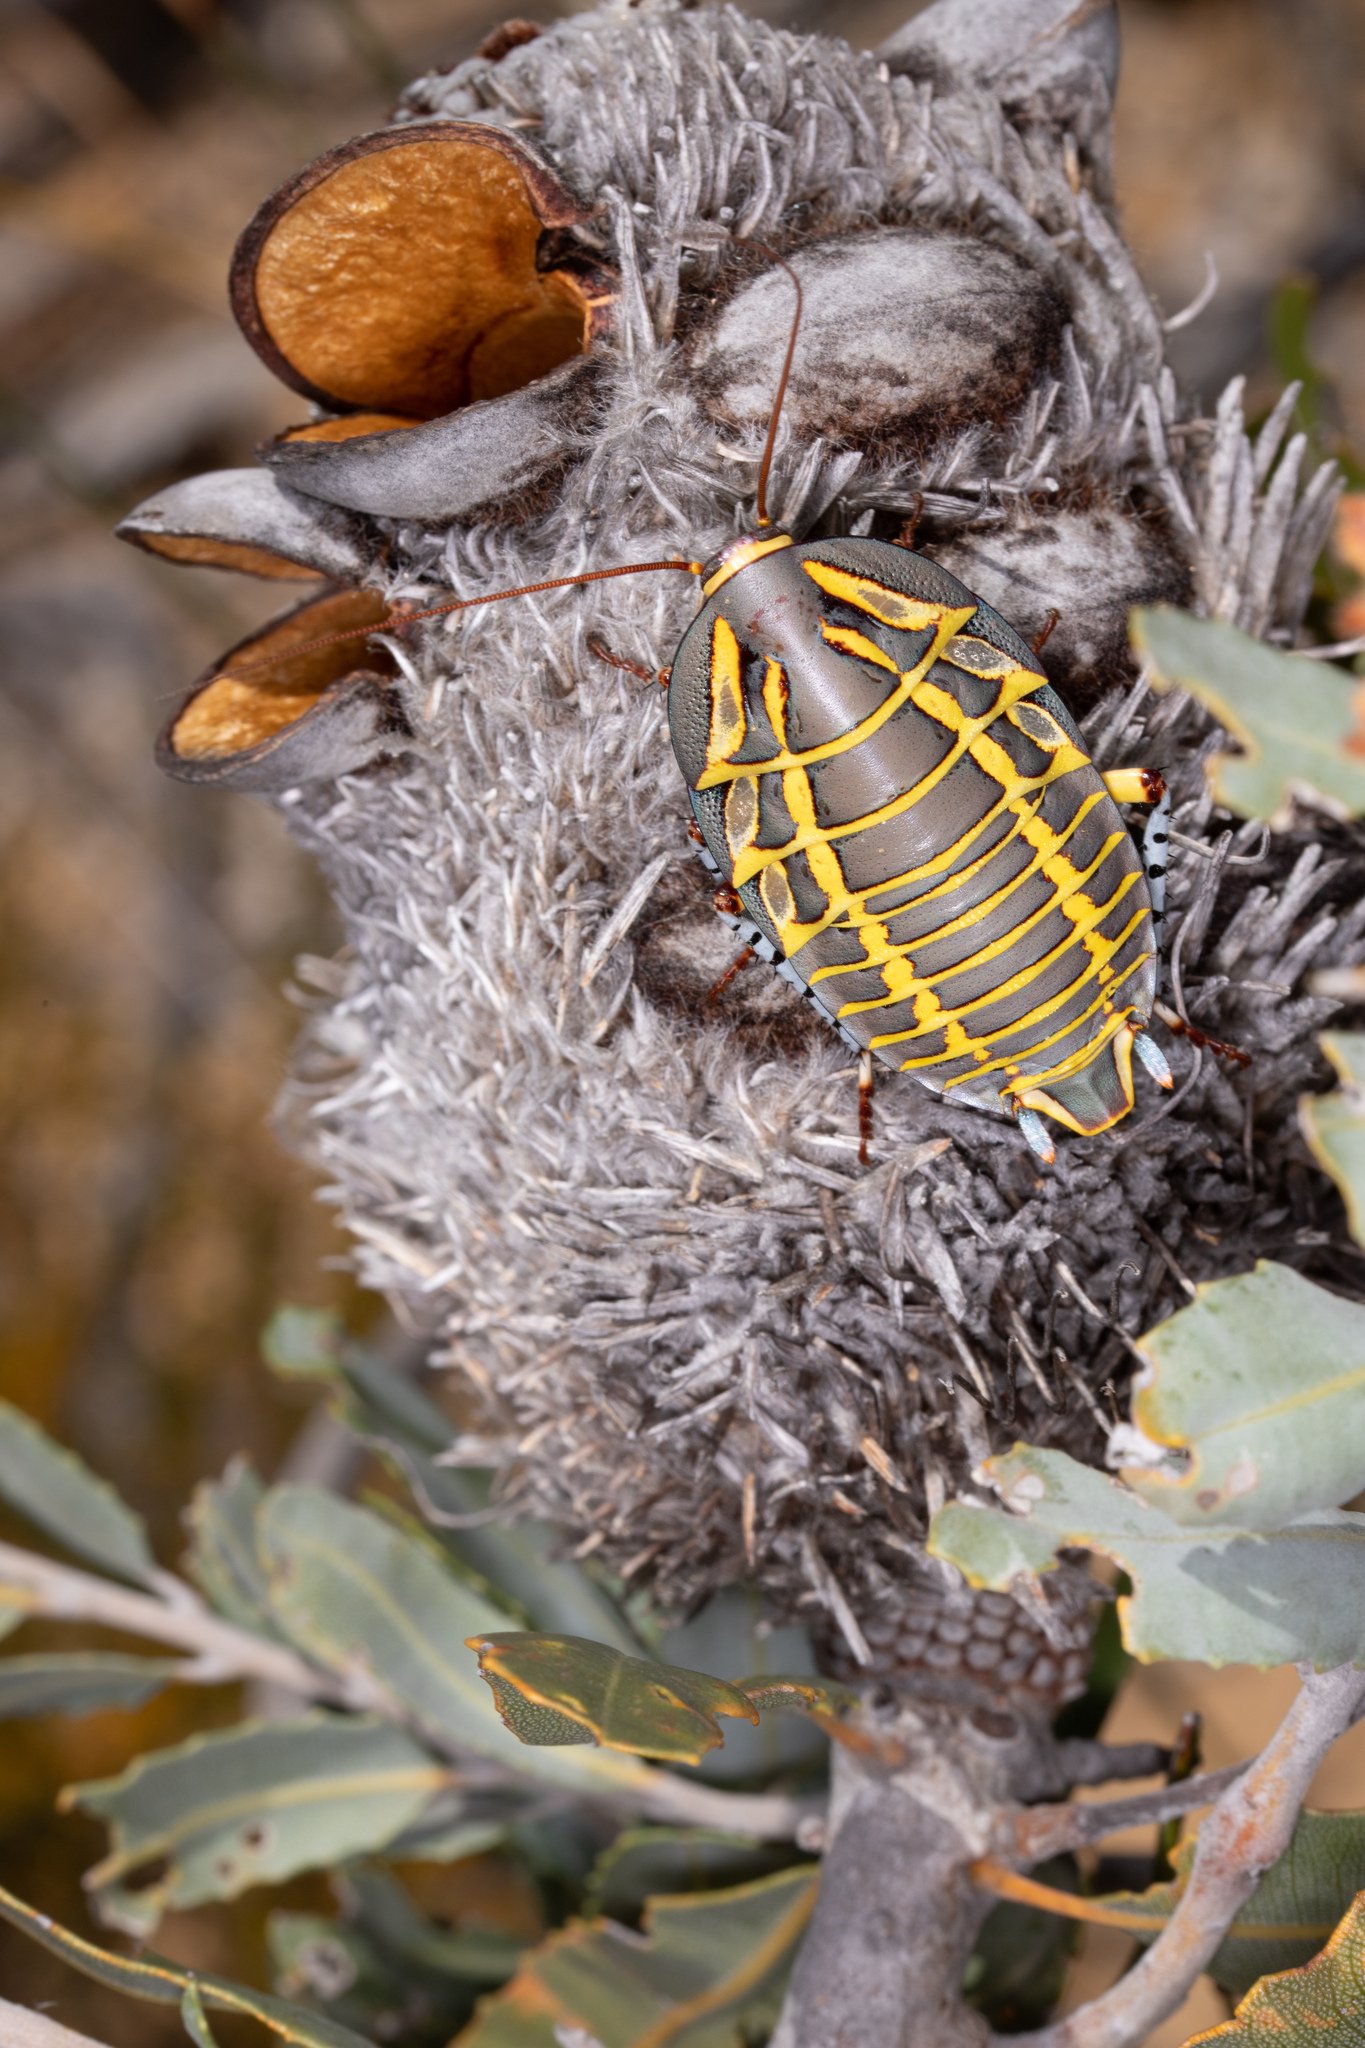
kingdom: Animalia
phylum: Arthropoda
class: Insecta
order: Blattodea
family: Blattidae
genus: Polyzosteria
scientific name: Polyzosteria mitchelli
